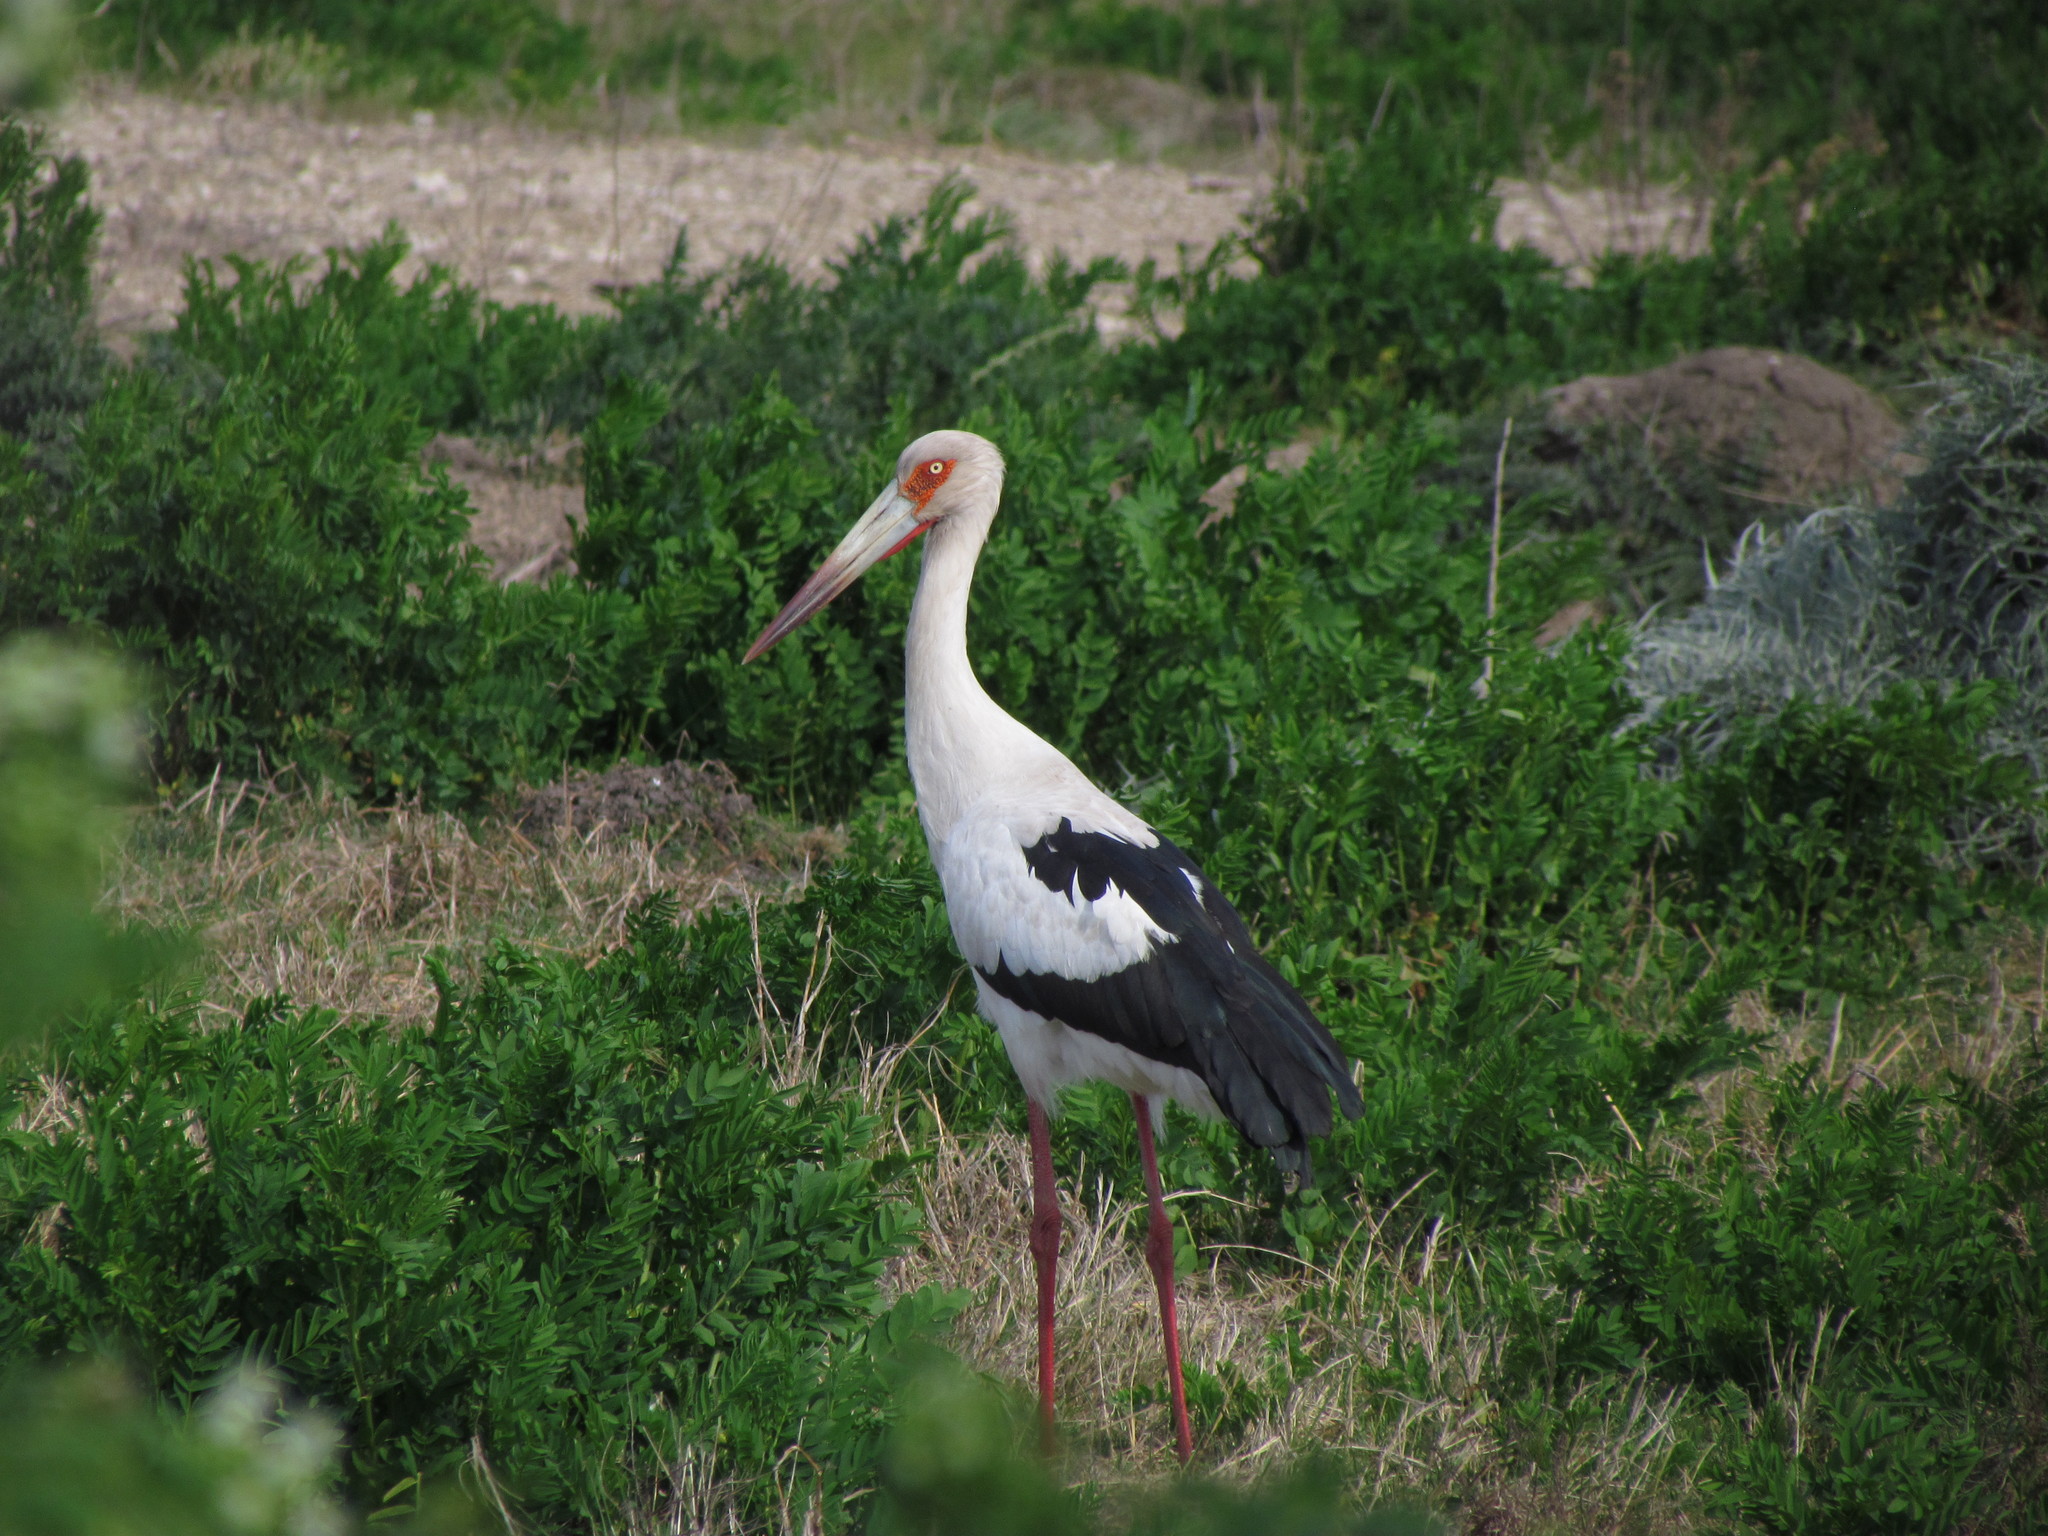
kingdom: Animalia
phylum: Chordata
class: Aves
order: Ciconiiformes
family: Ciconiidae
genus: Ciconia
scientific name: Ciconia maguari
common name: Maguari stork
